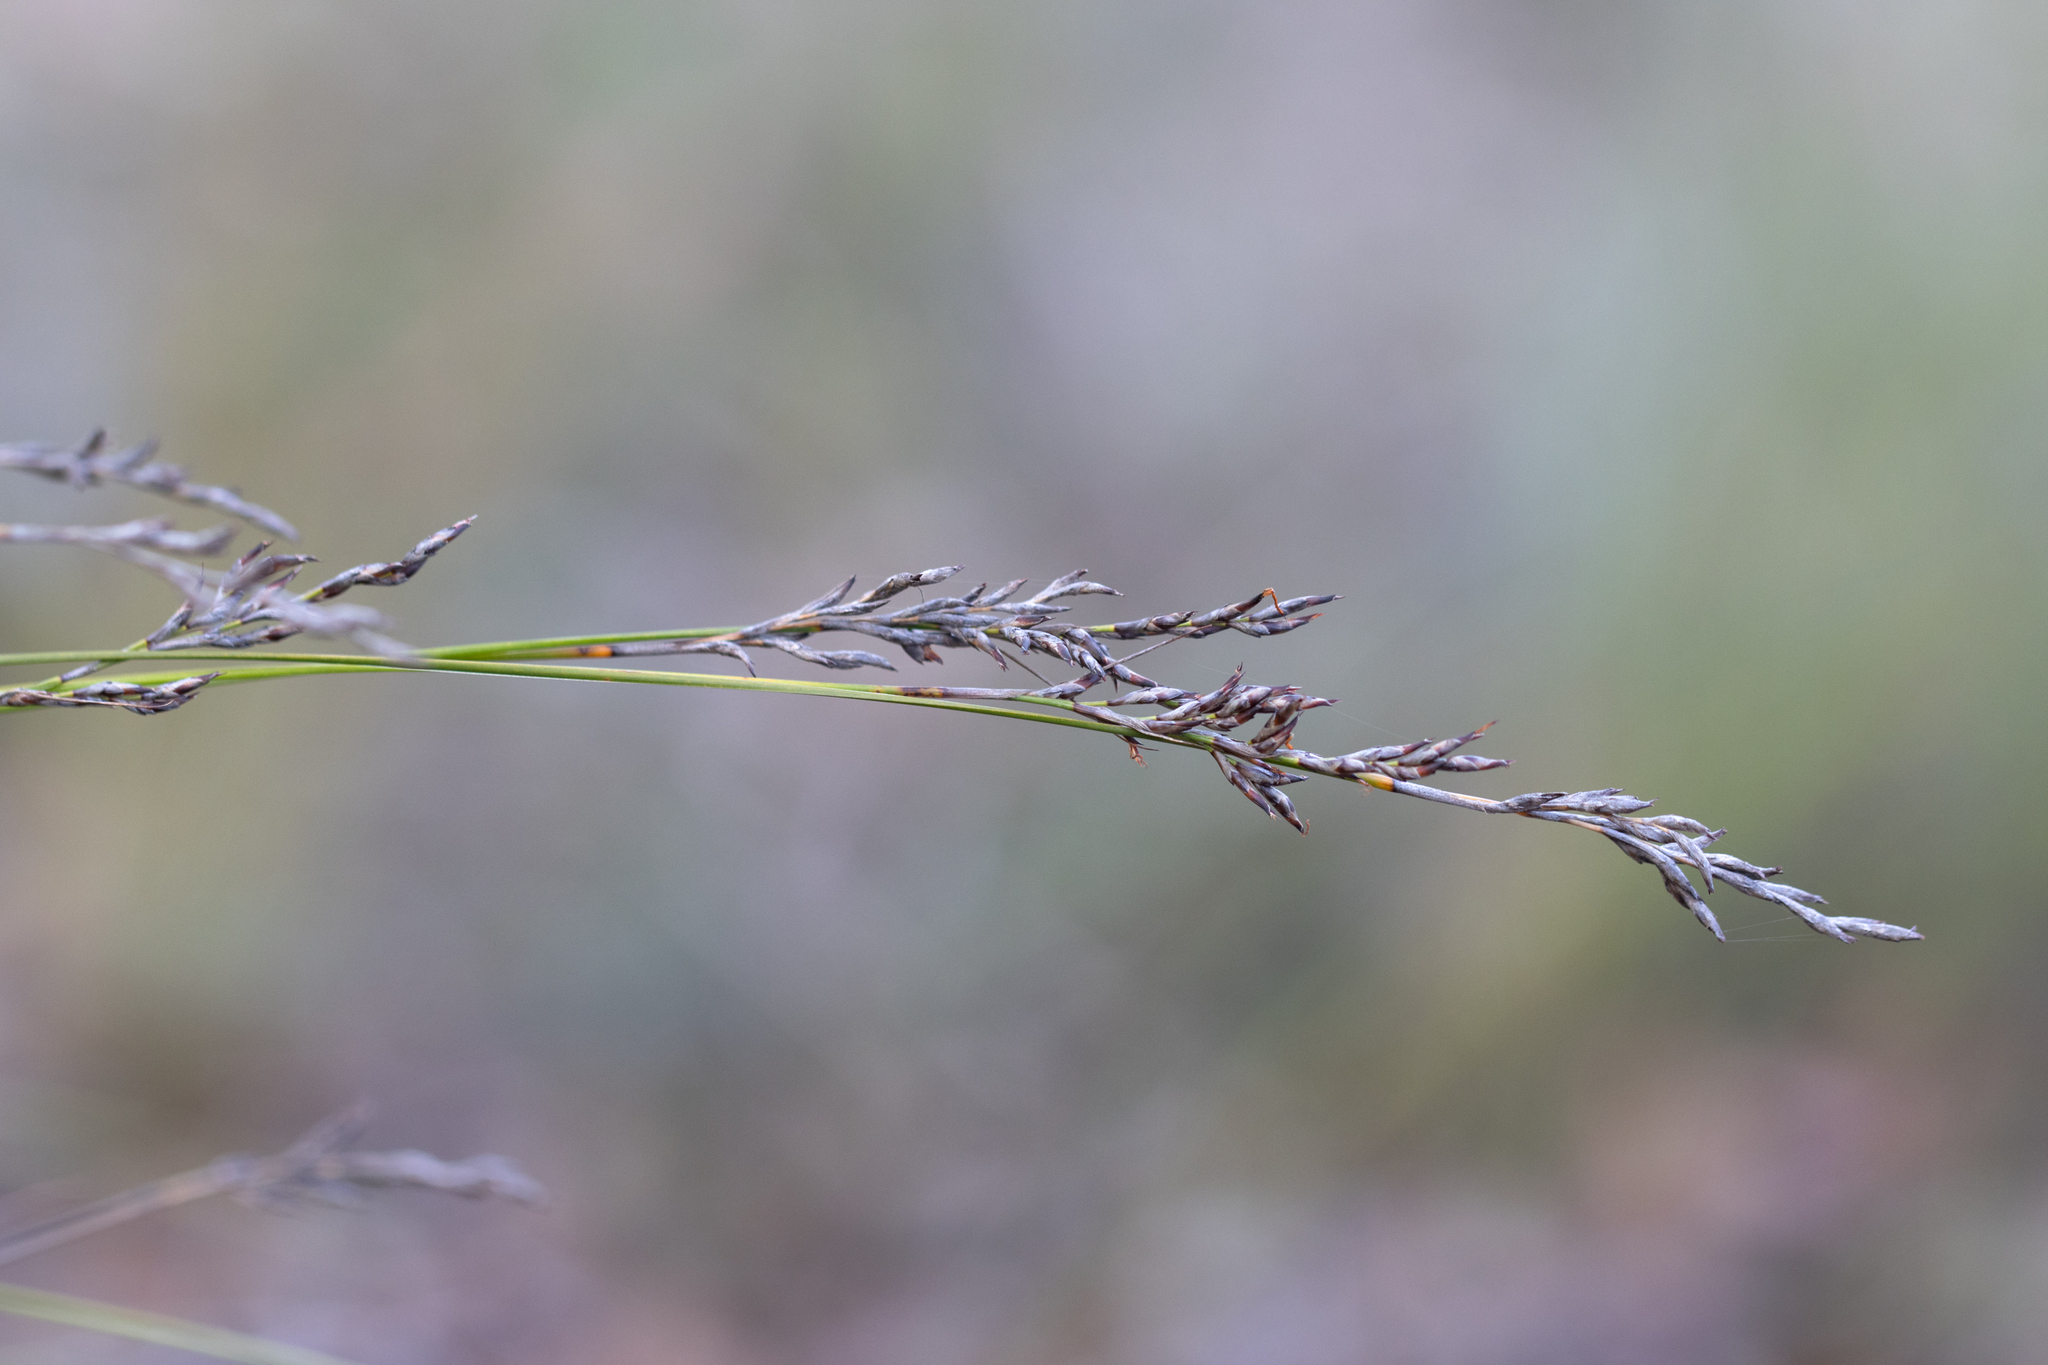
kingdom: Plantae
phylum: Tracheophyta
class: Liliopsida
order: Poales
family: Cyperaceae
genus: Lepidosperma
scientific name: Lepidosperma semiteres
